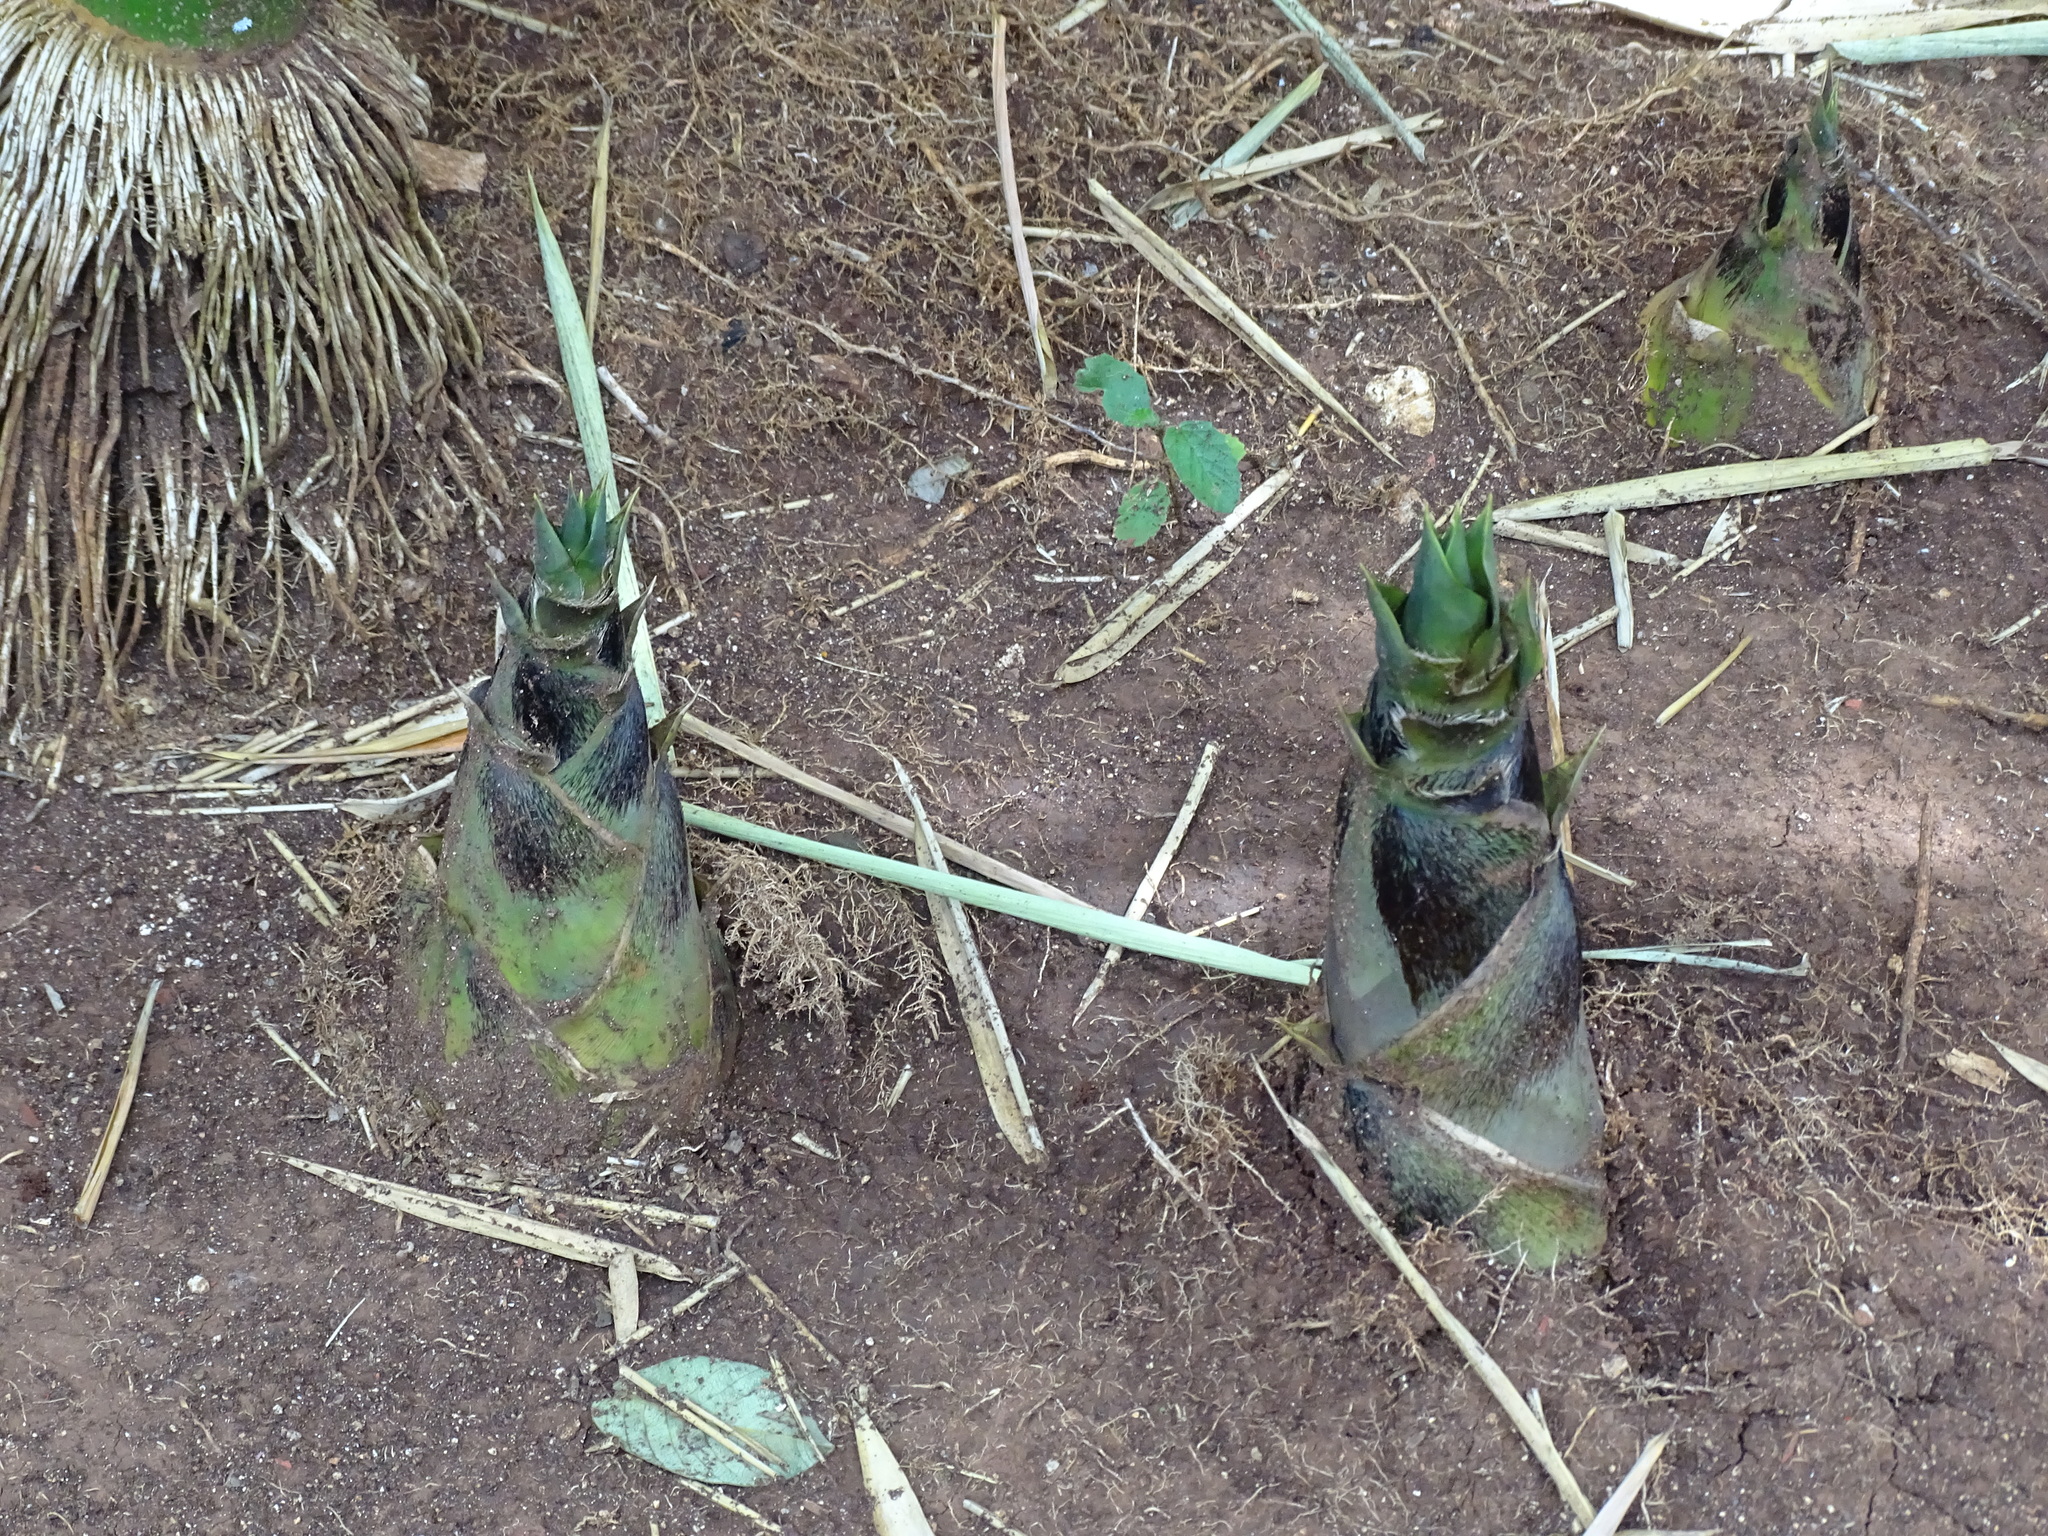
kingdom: Plantae
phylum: Tracheophyta
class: Liliopsida
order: Poales
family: Poaceae
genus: Bambusa
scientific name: Bambusa vulgaris
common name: Common bamboo
